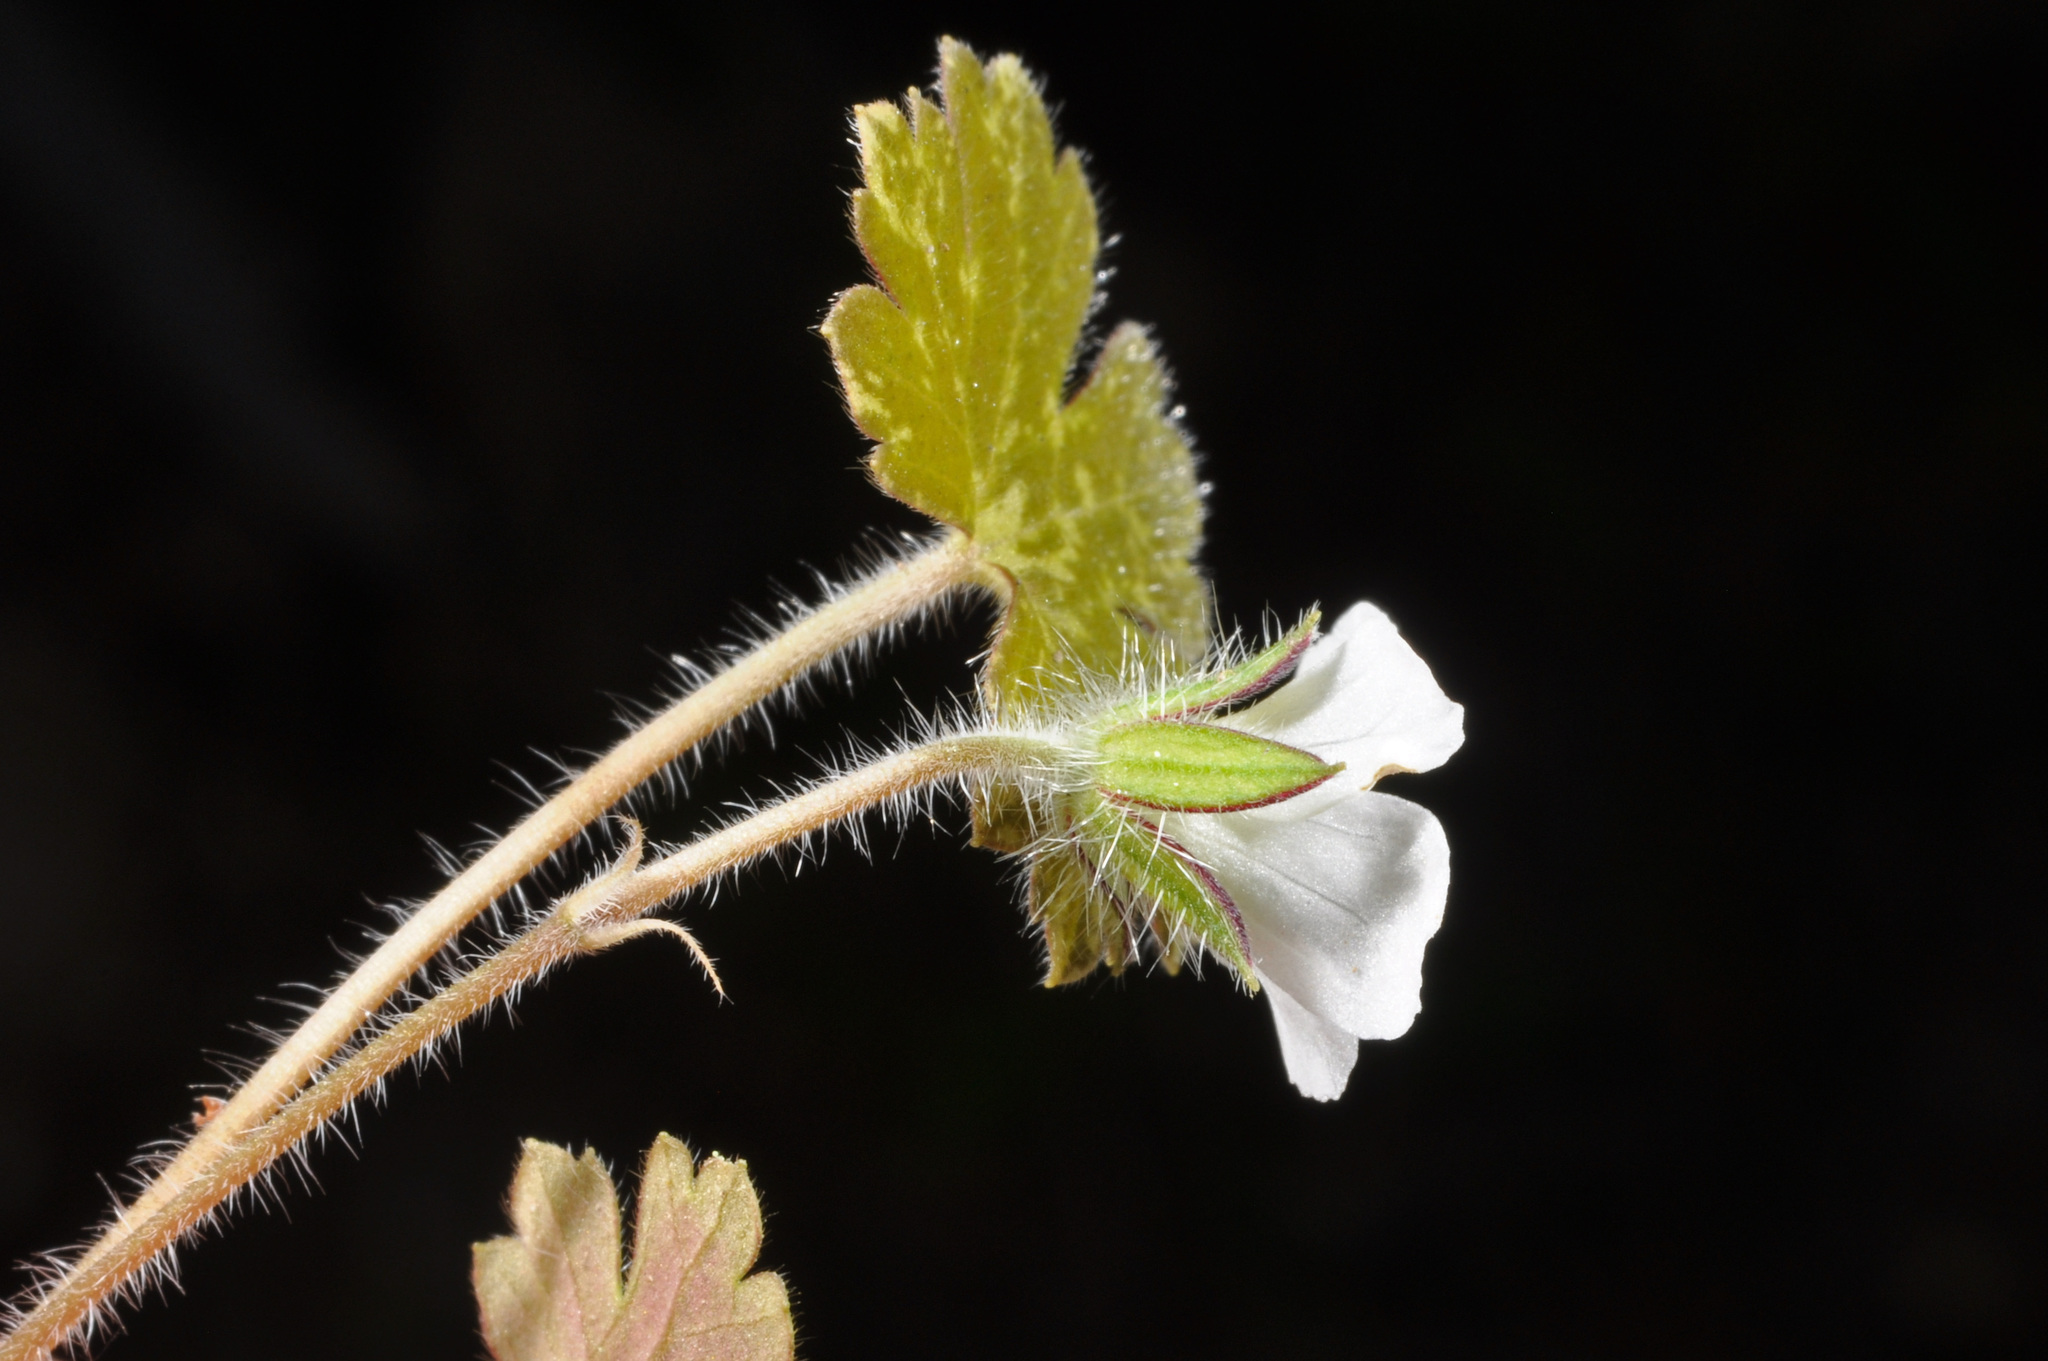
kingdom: Plantae
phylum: Tracheophyta
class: Magnoliopsida
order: Geraniales
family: Geraniaceae
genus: Geranium
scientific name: Geranium potentilloides
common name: Cinquefoil geranium
